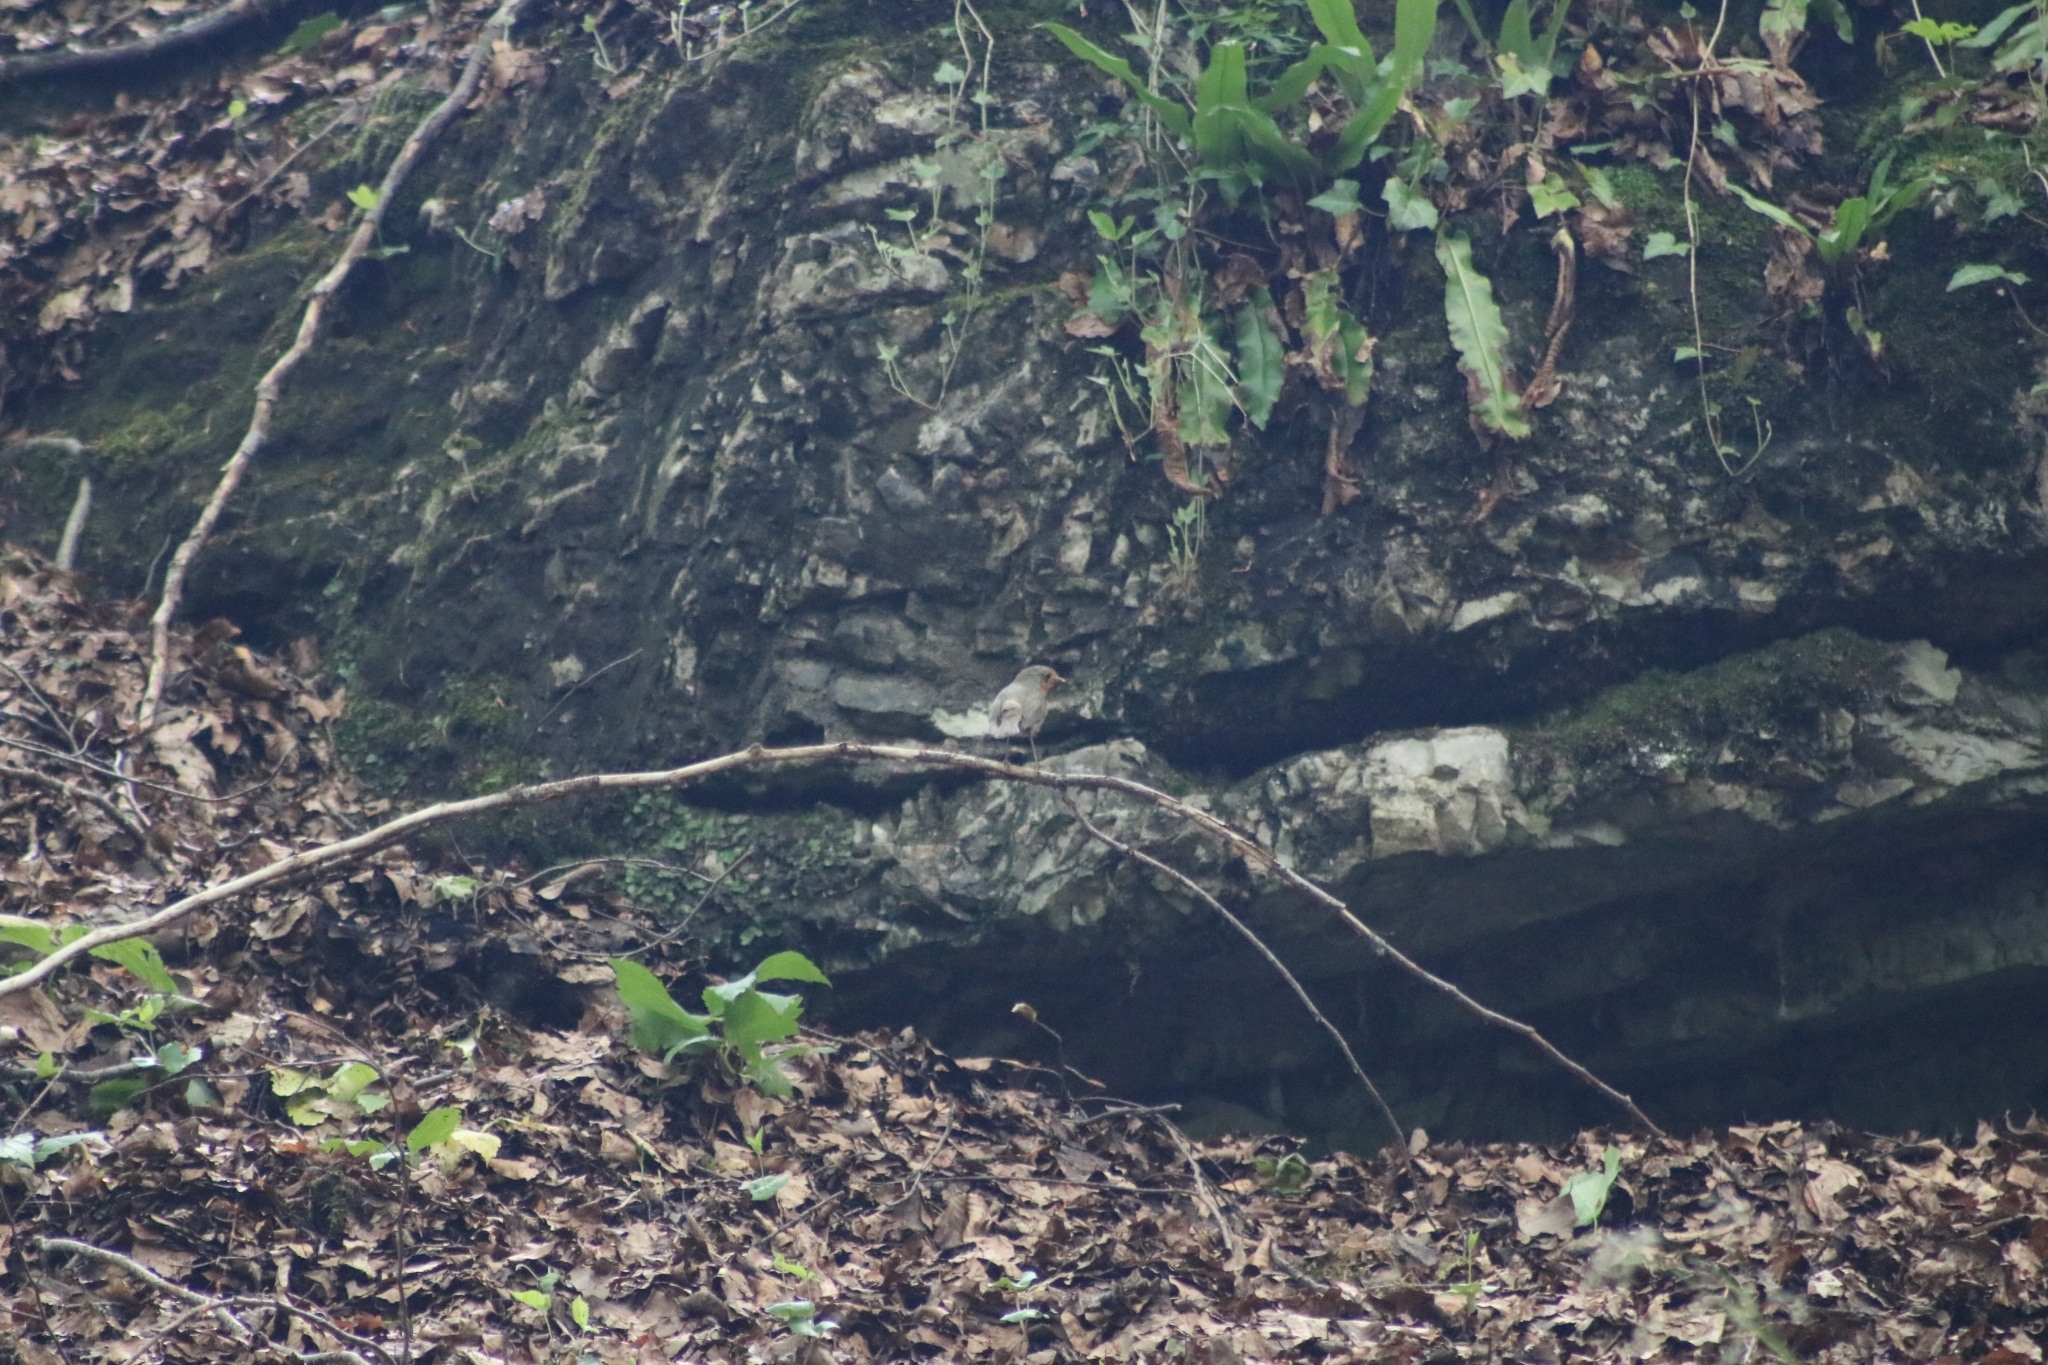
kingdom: Animalia
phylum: Chordata
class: Aves
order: Passeriformes
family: Muscicapidae
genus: Erithacus
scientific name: Erithacus rubecula
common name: European robin
